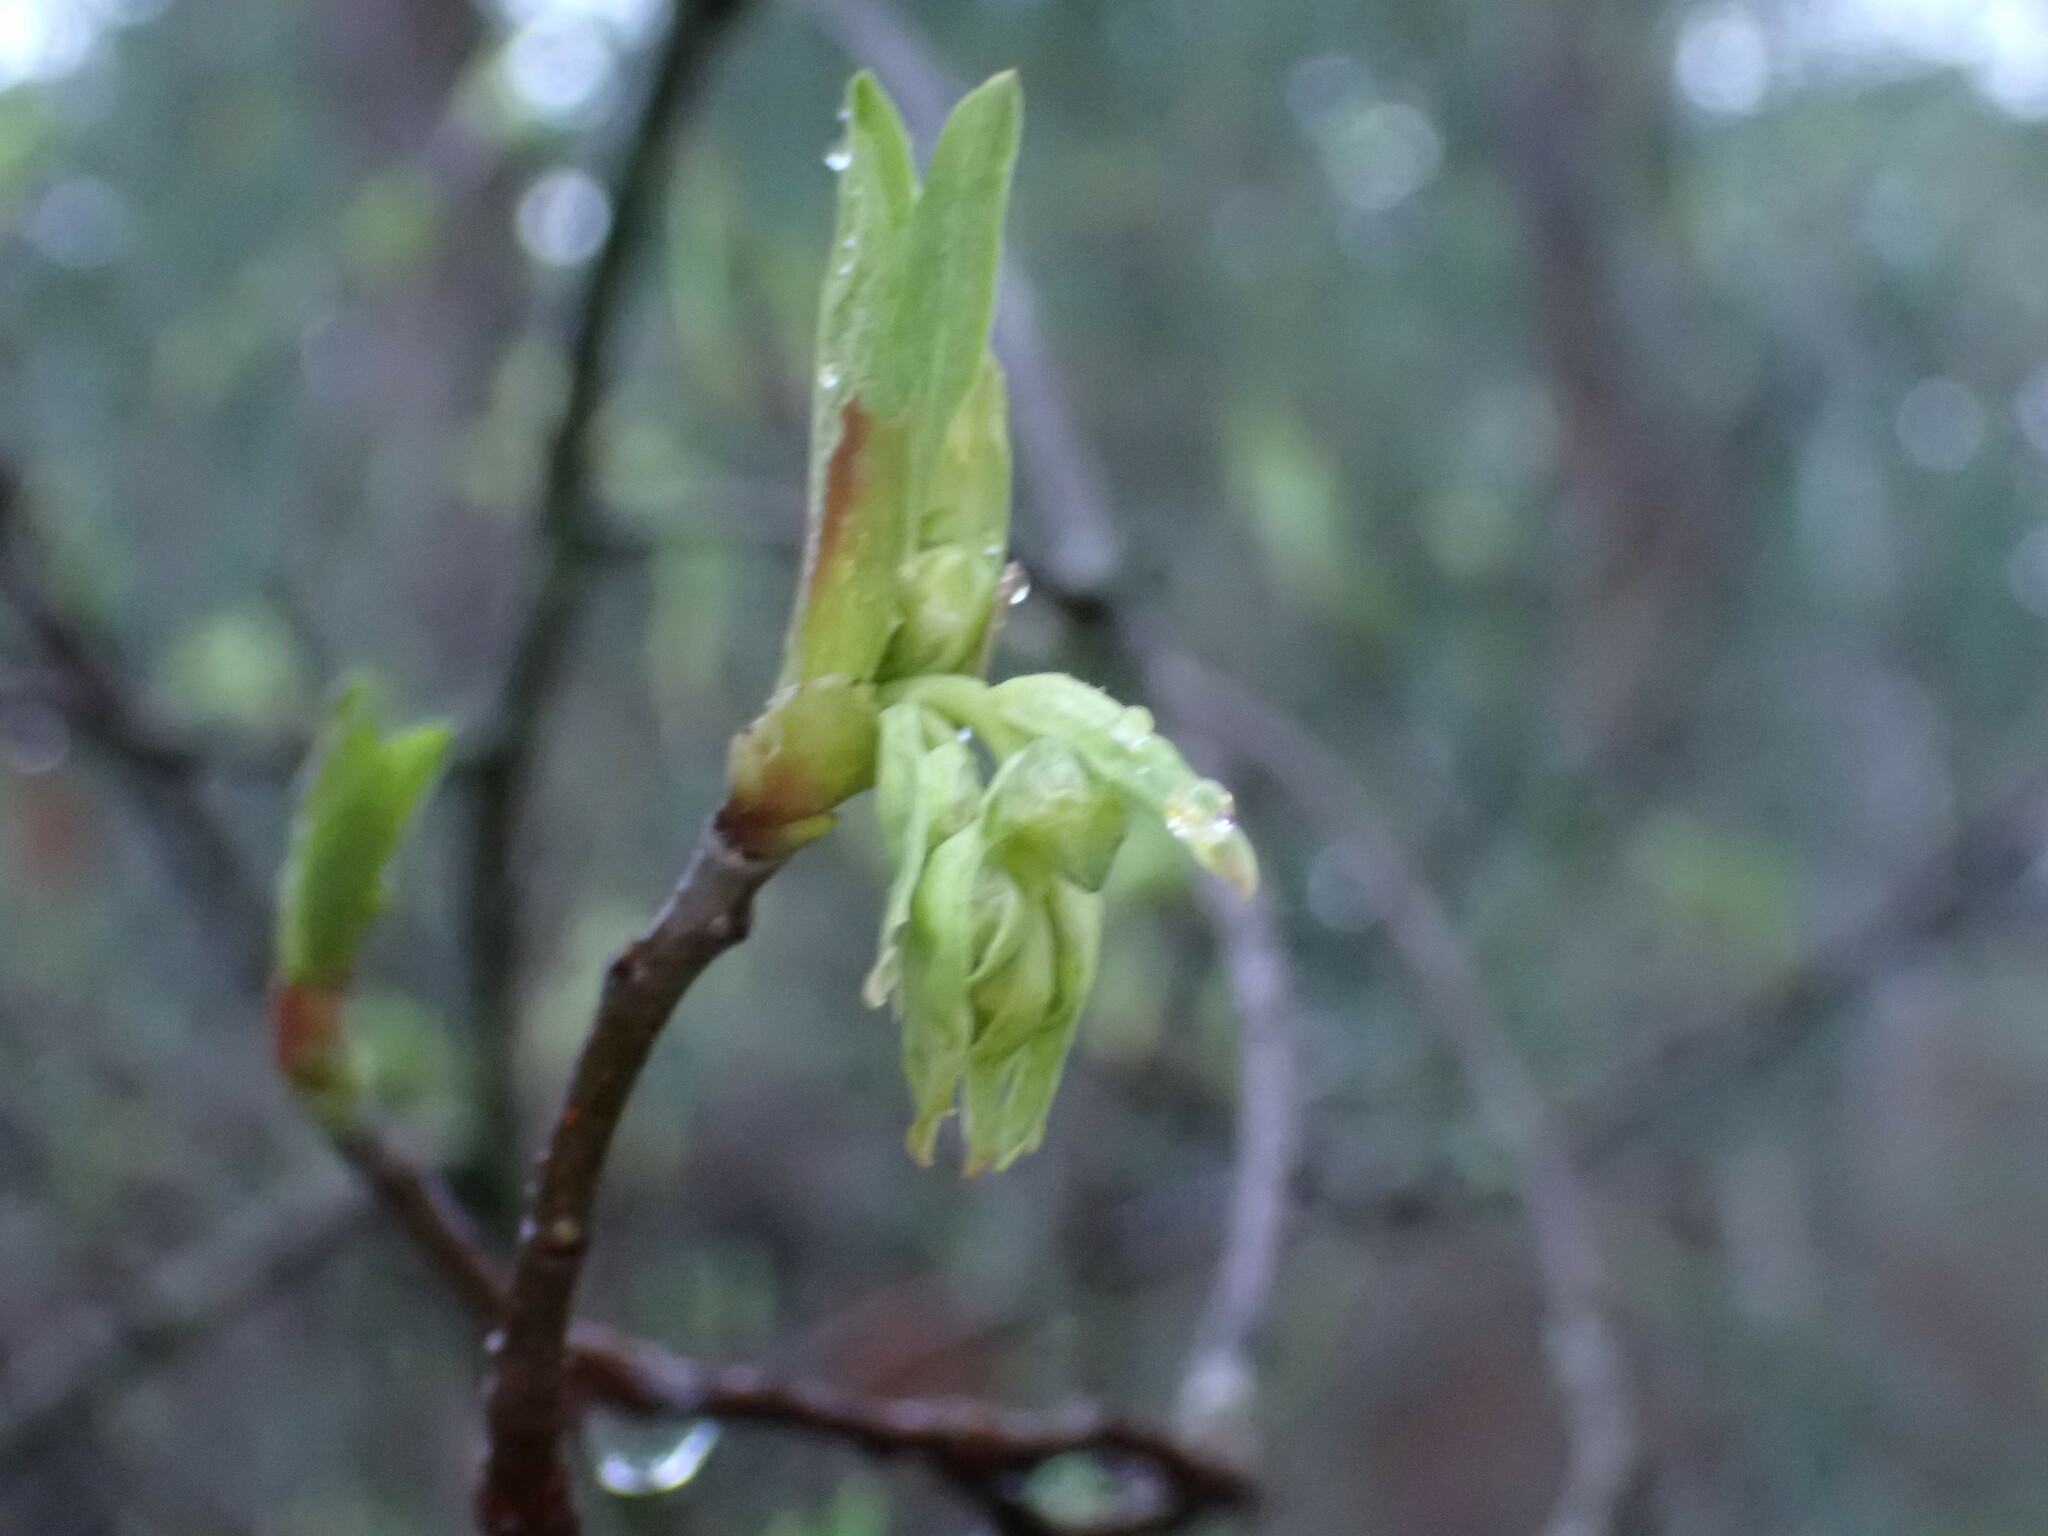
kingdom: Plantae
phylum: Tracheophyta
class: Magnoliopsida
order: Rosales
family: Rosaceae
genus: Oemleria
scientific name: Oemleria cerasiformis
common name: Osoberry
